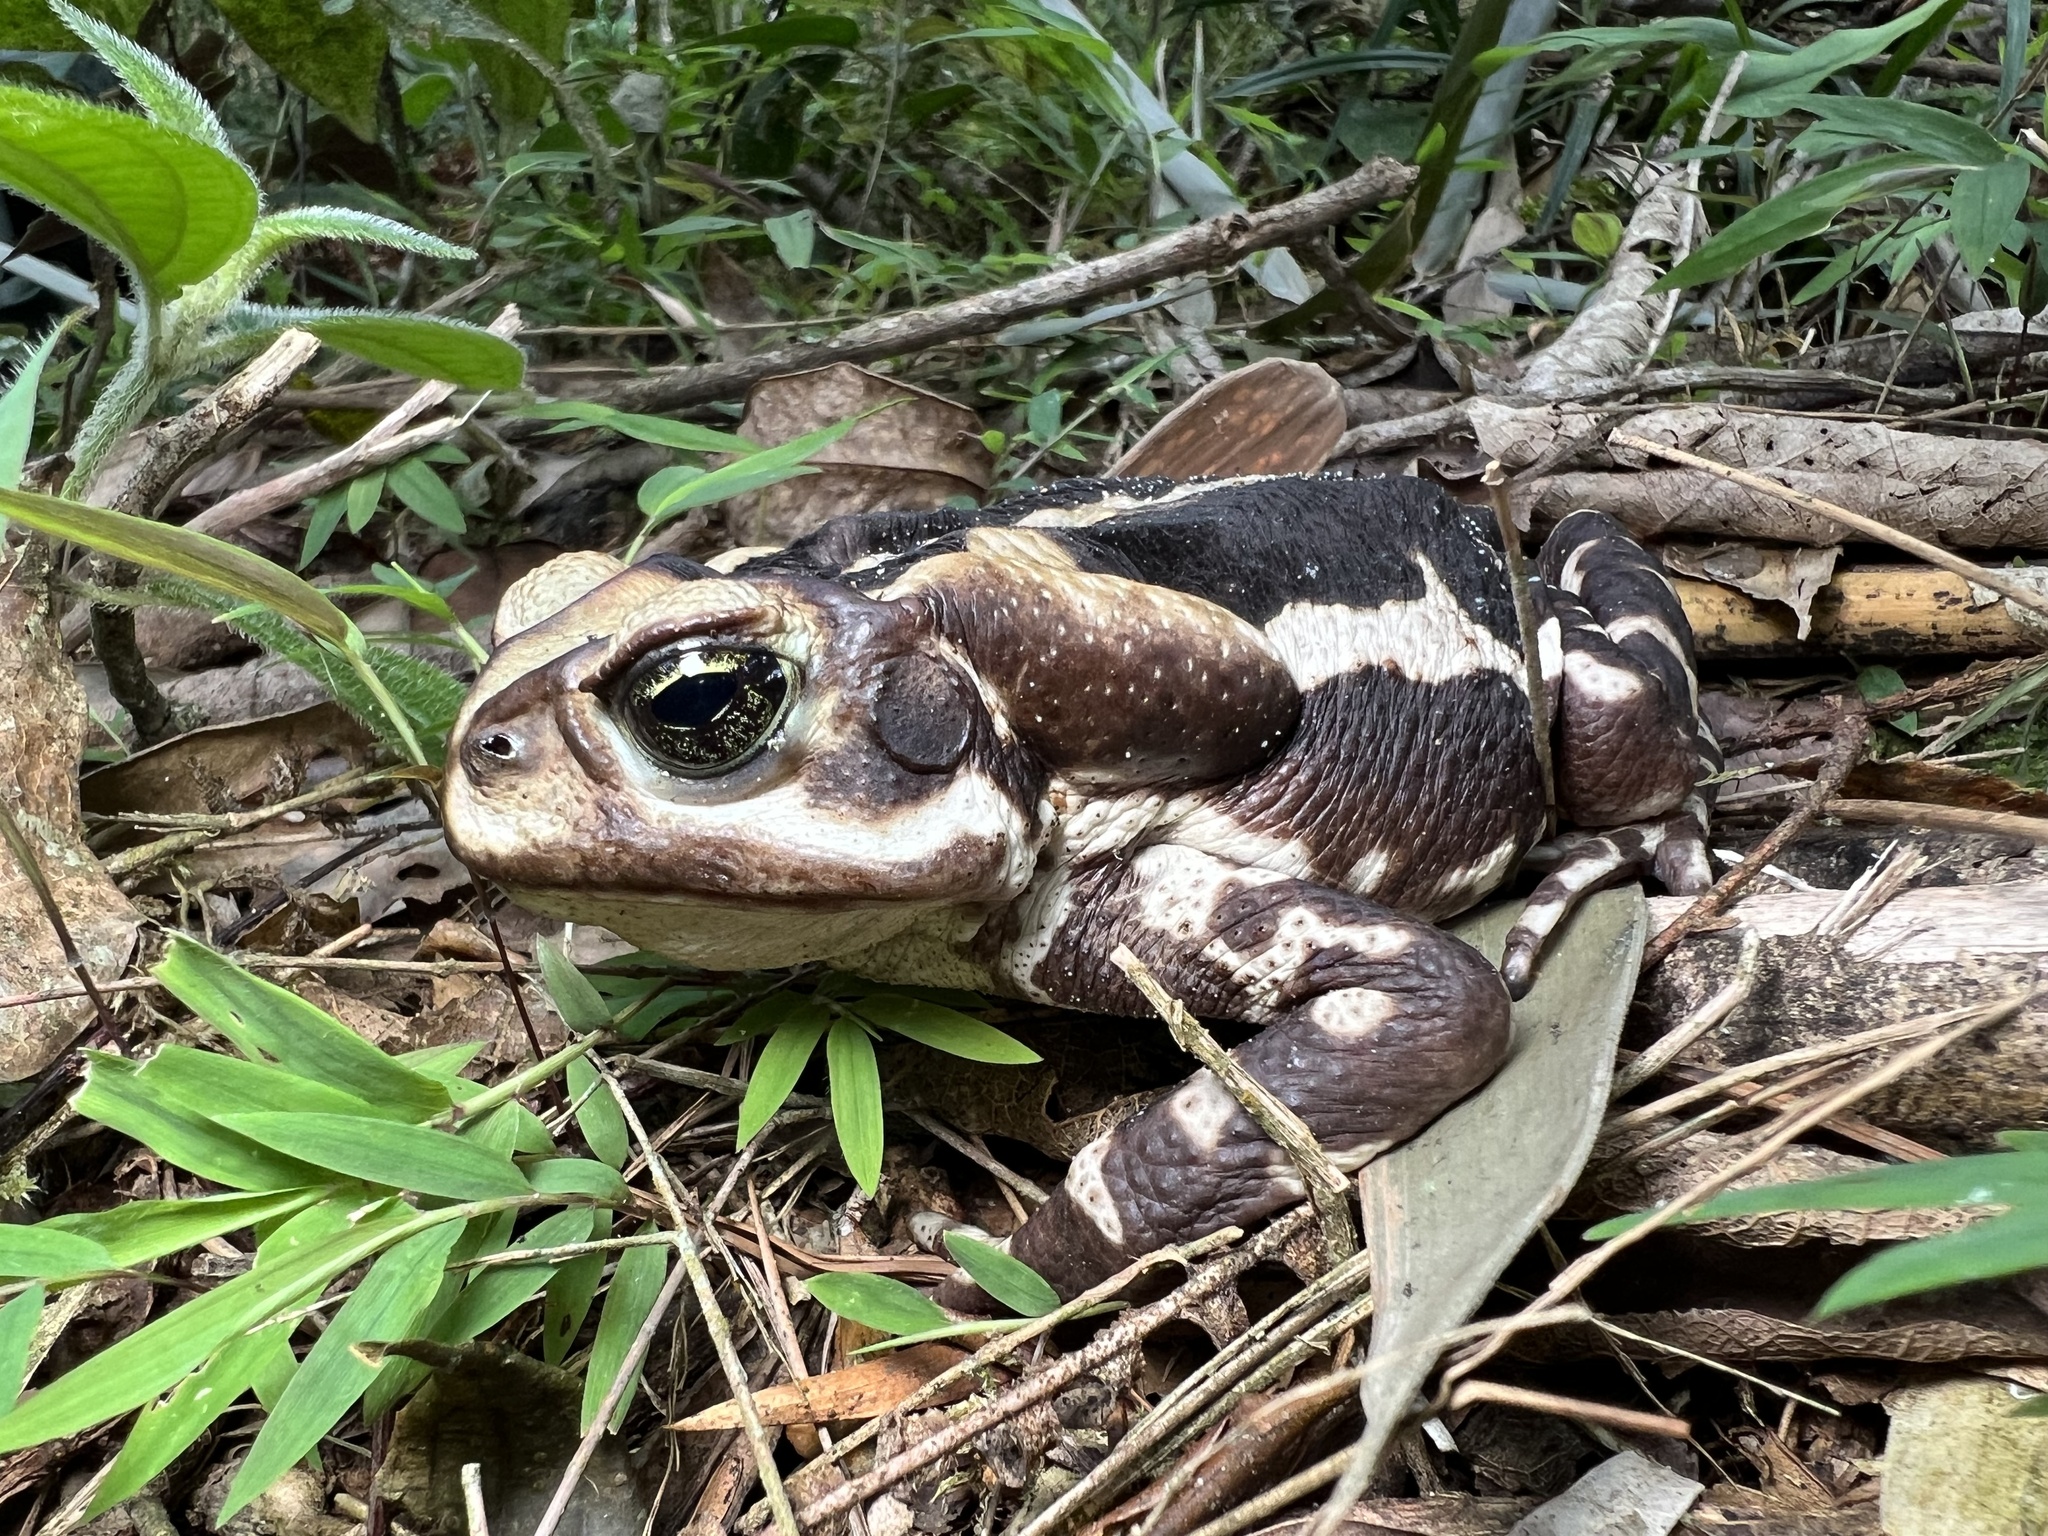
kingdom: Animalia
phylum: Chordata
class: Amphibia
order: Anura
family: Bufonidae
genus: Rhinella
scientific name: Rhinella icterica
